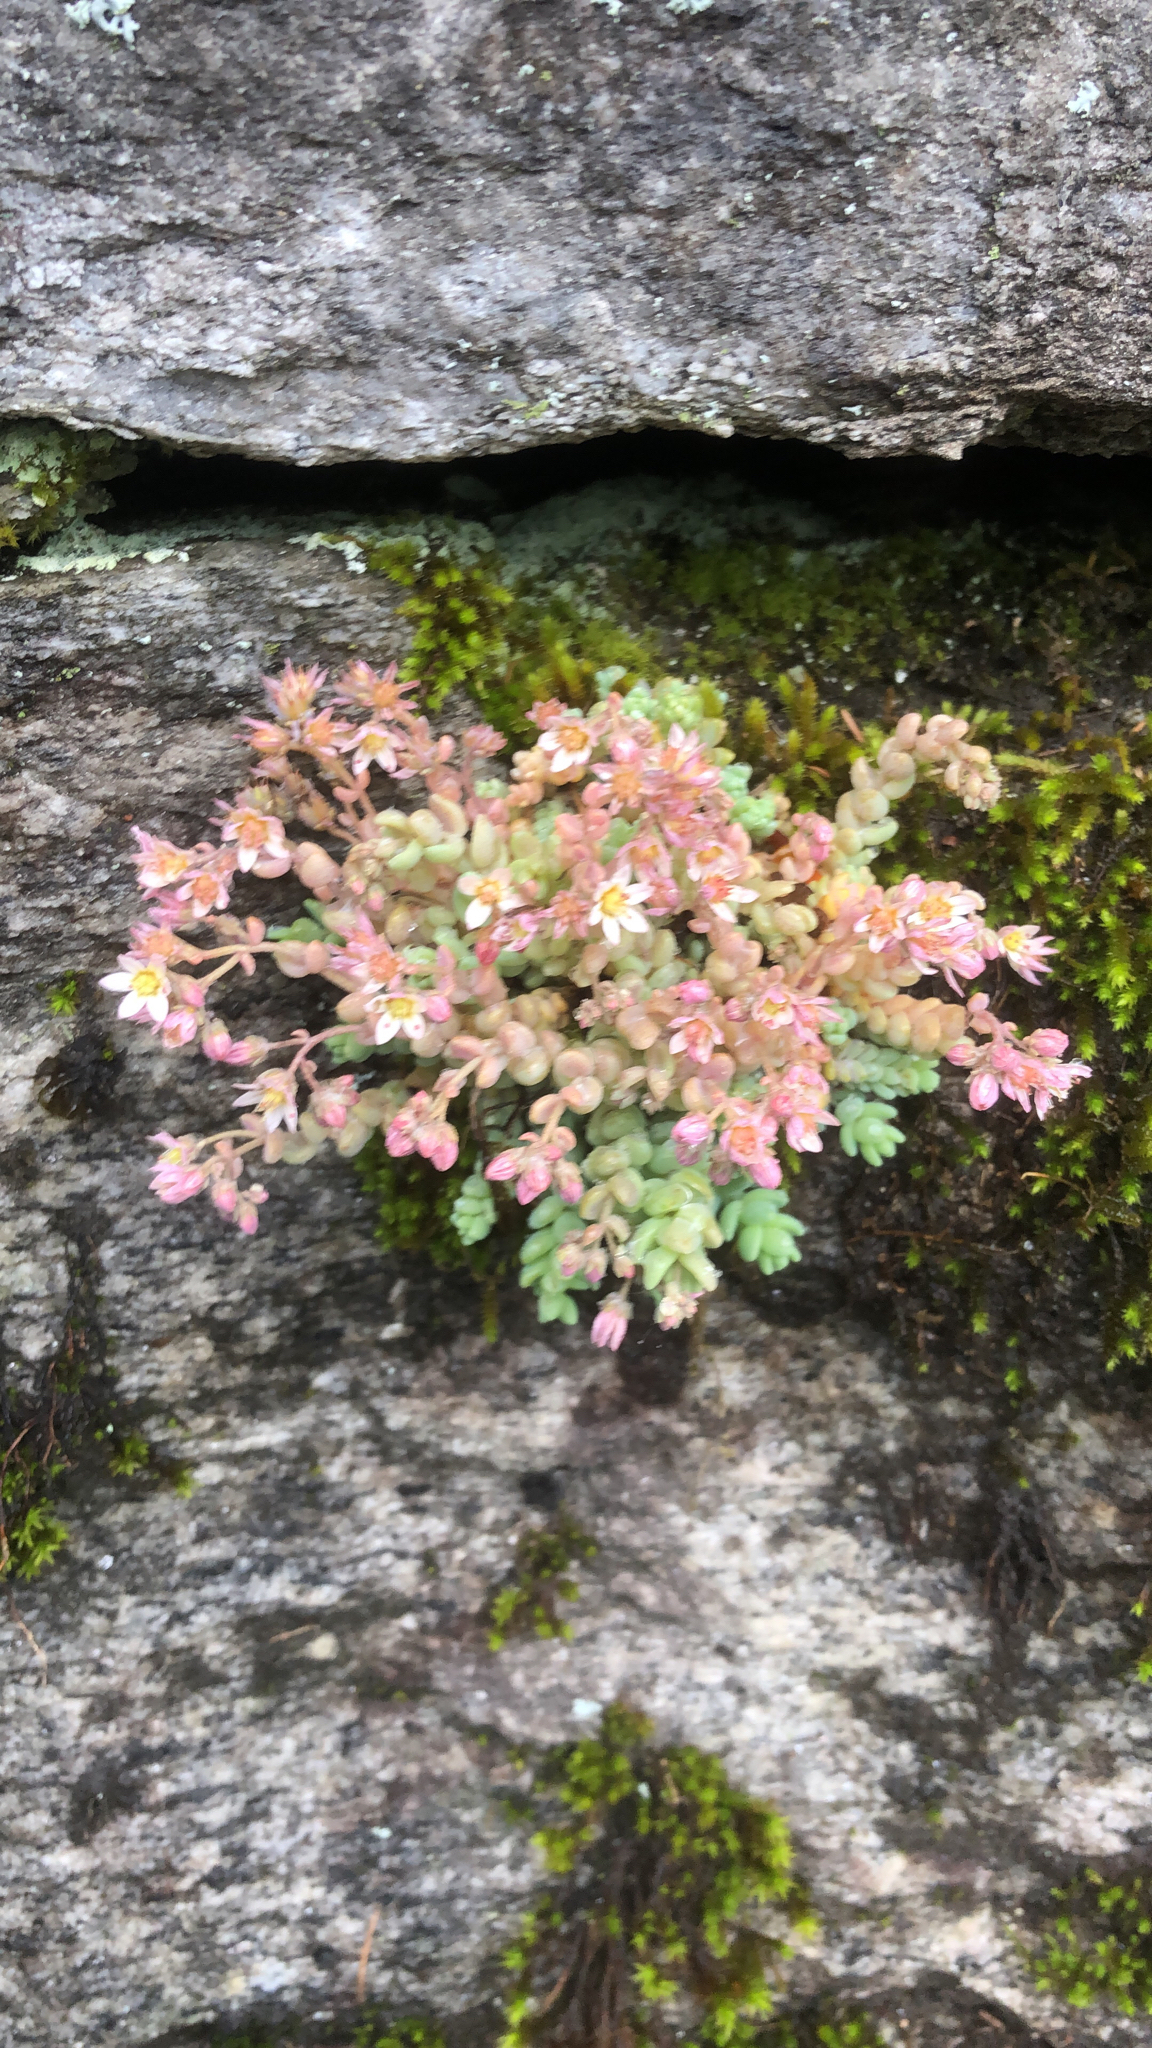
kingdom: Plantae
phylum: Tracheophyta
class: Magnoliopsida
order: Saxifragales
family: Crassulaceae
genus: Sedum
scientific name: Sedum dasyphyllum
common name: Thick-leaf stonecrop
